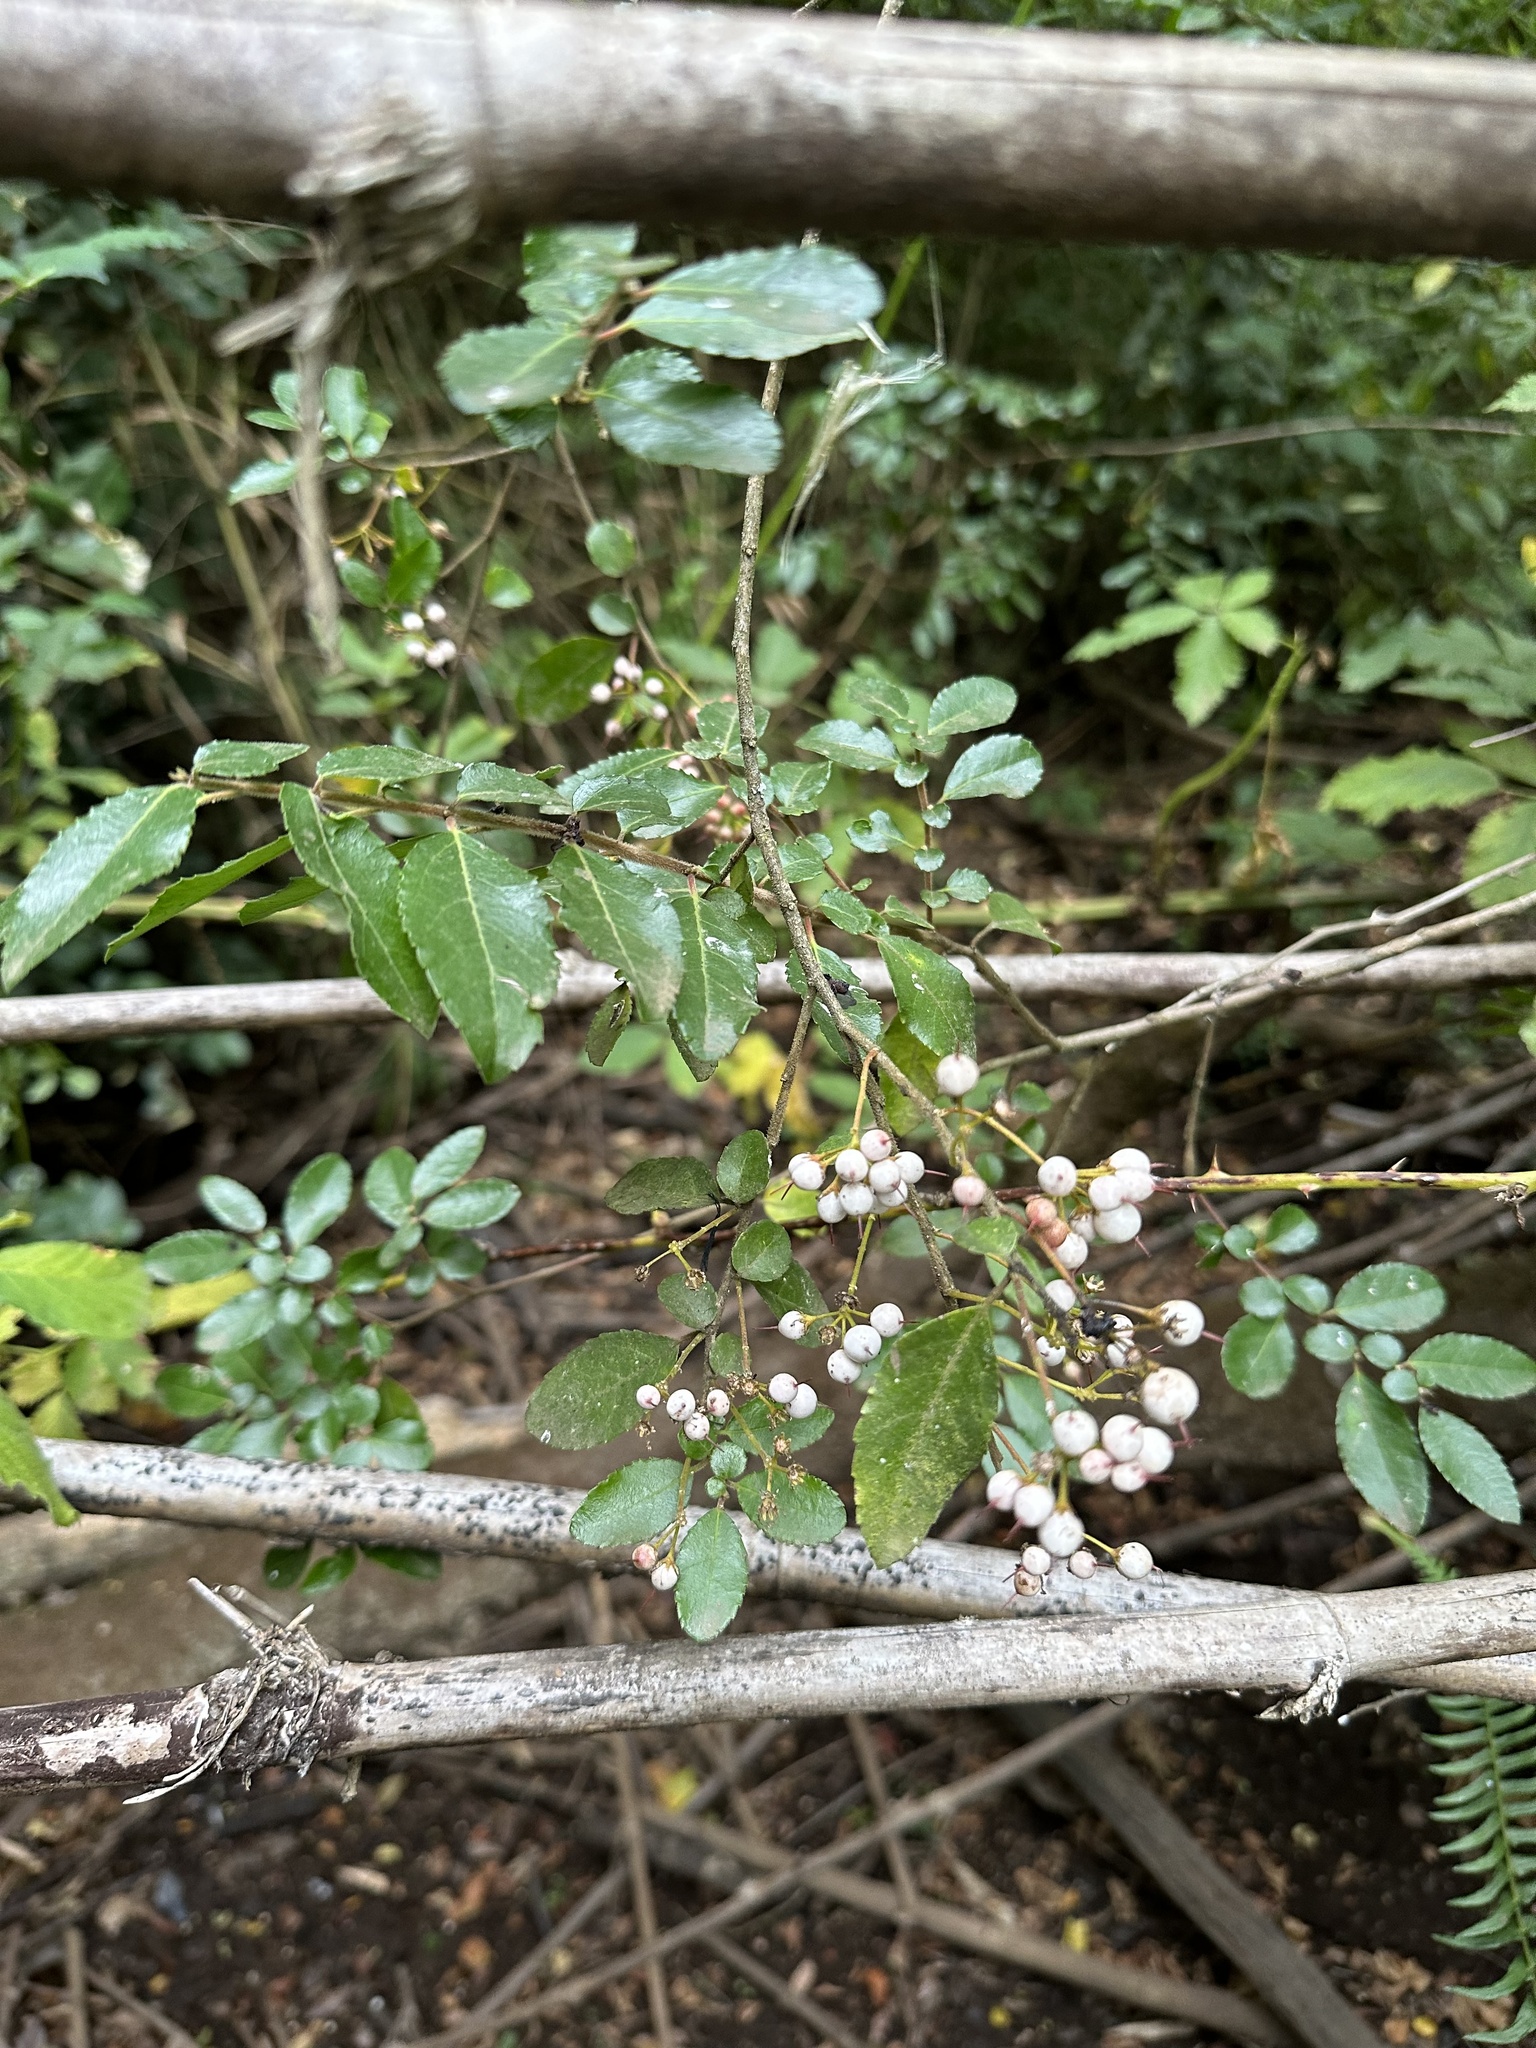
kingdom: Plantae
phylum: Tracheophyta
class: Magnoliopsida
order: Malpighiales
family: Salicaceae
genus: Azara
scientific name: Azara serrata
